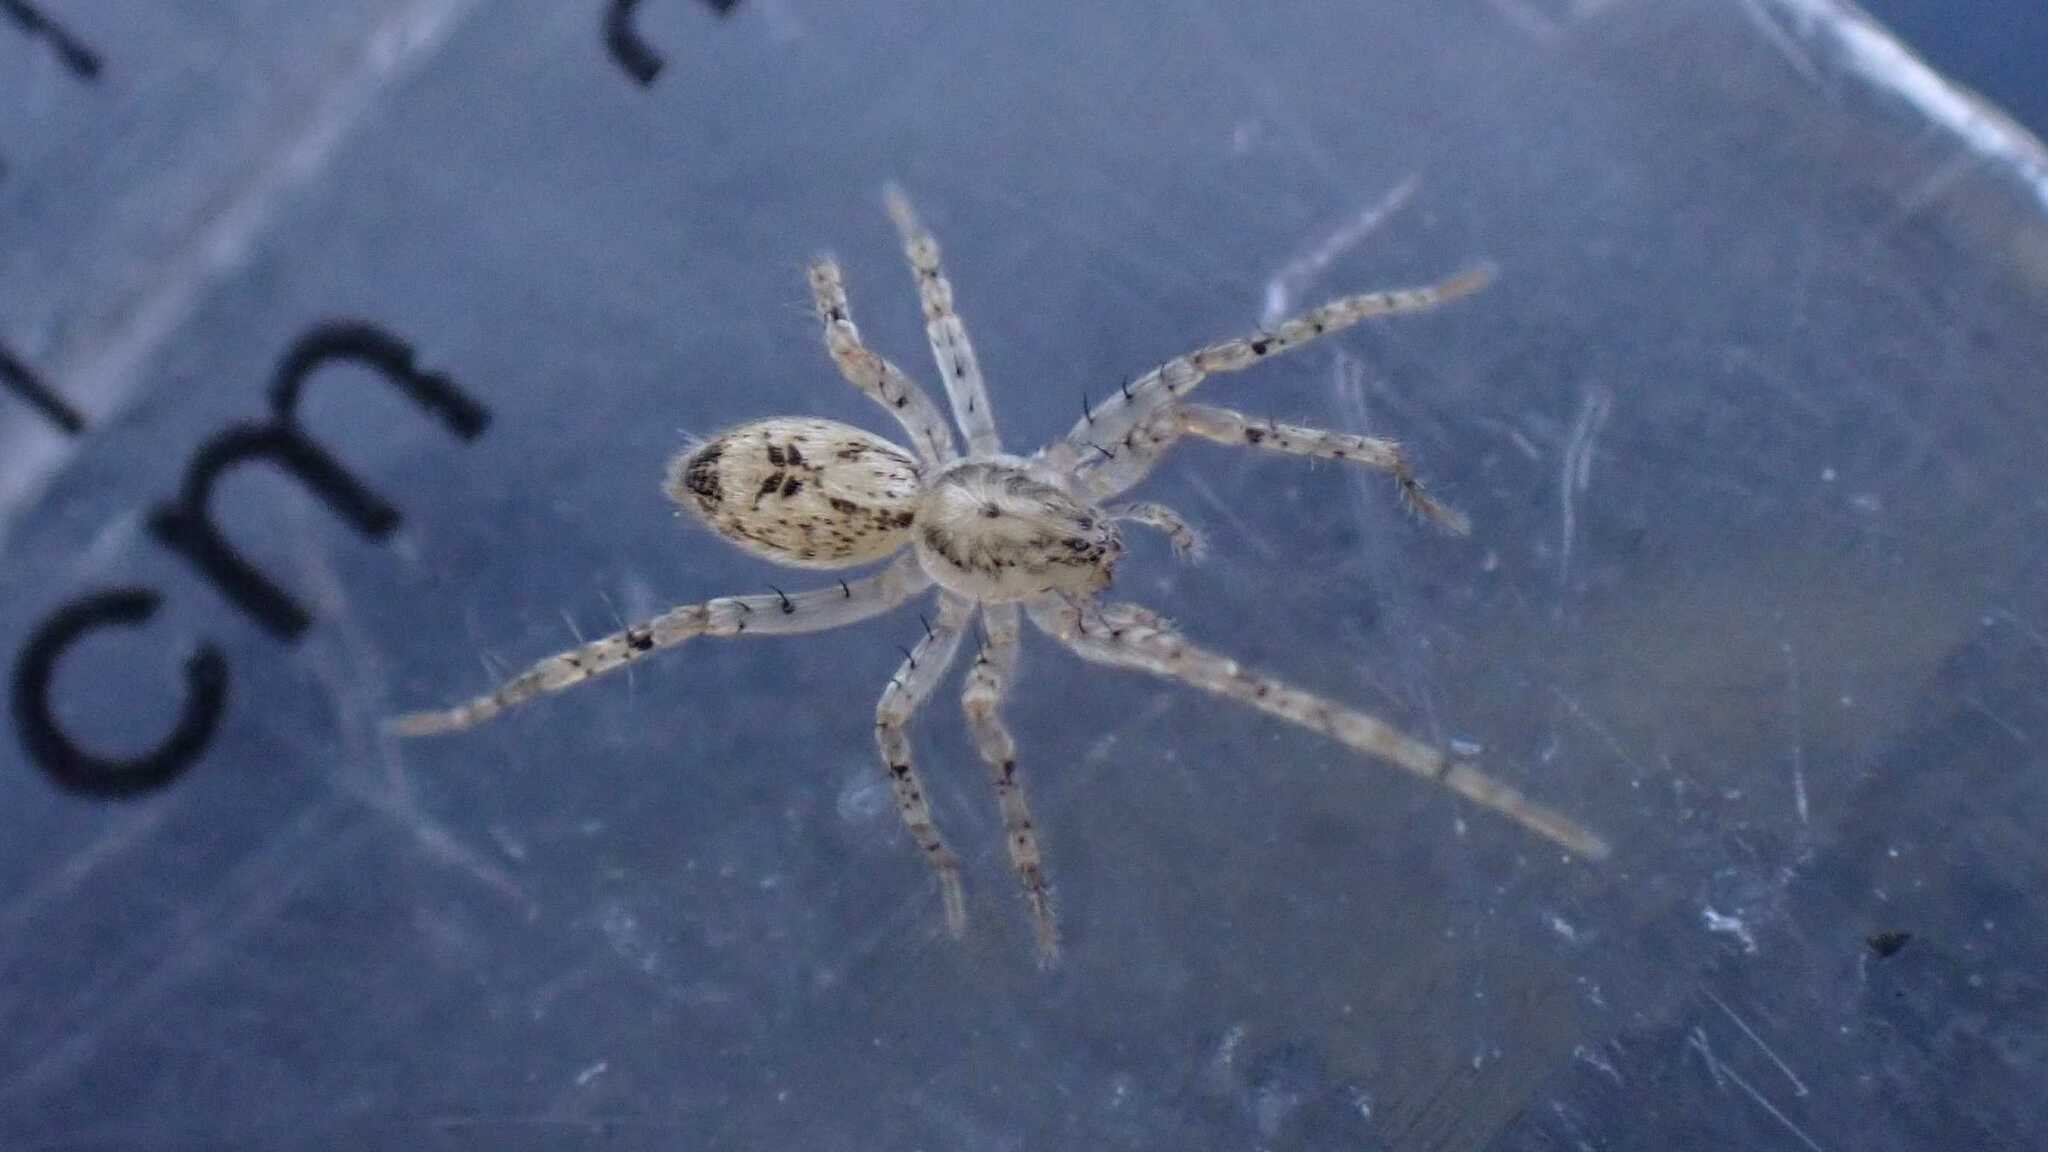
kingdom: Animalia
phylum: Arthropoda
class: Arachnida
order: Araneae
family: Anyphaenidae
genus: Anyphaena
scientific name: Anyphaena accentuata
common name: Buzzing spider
